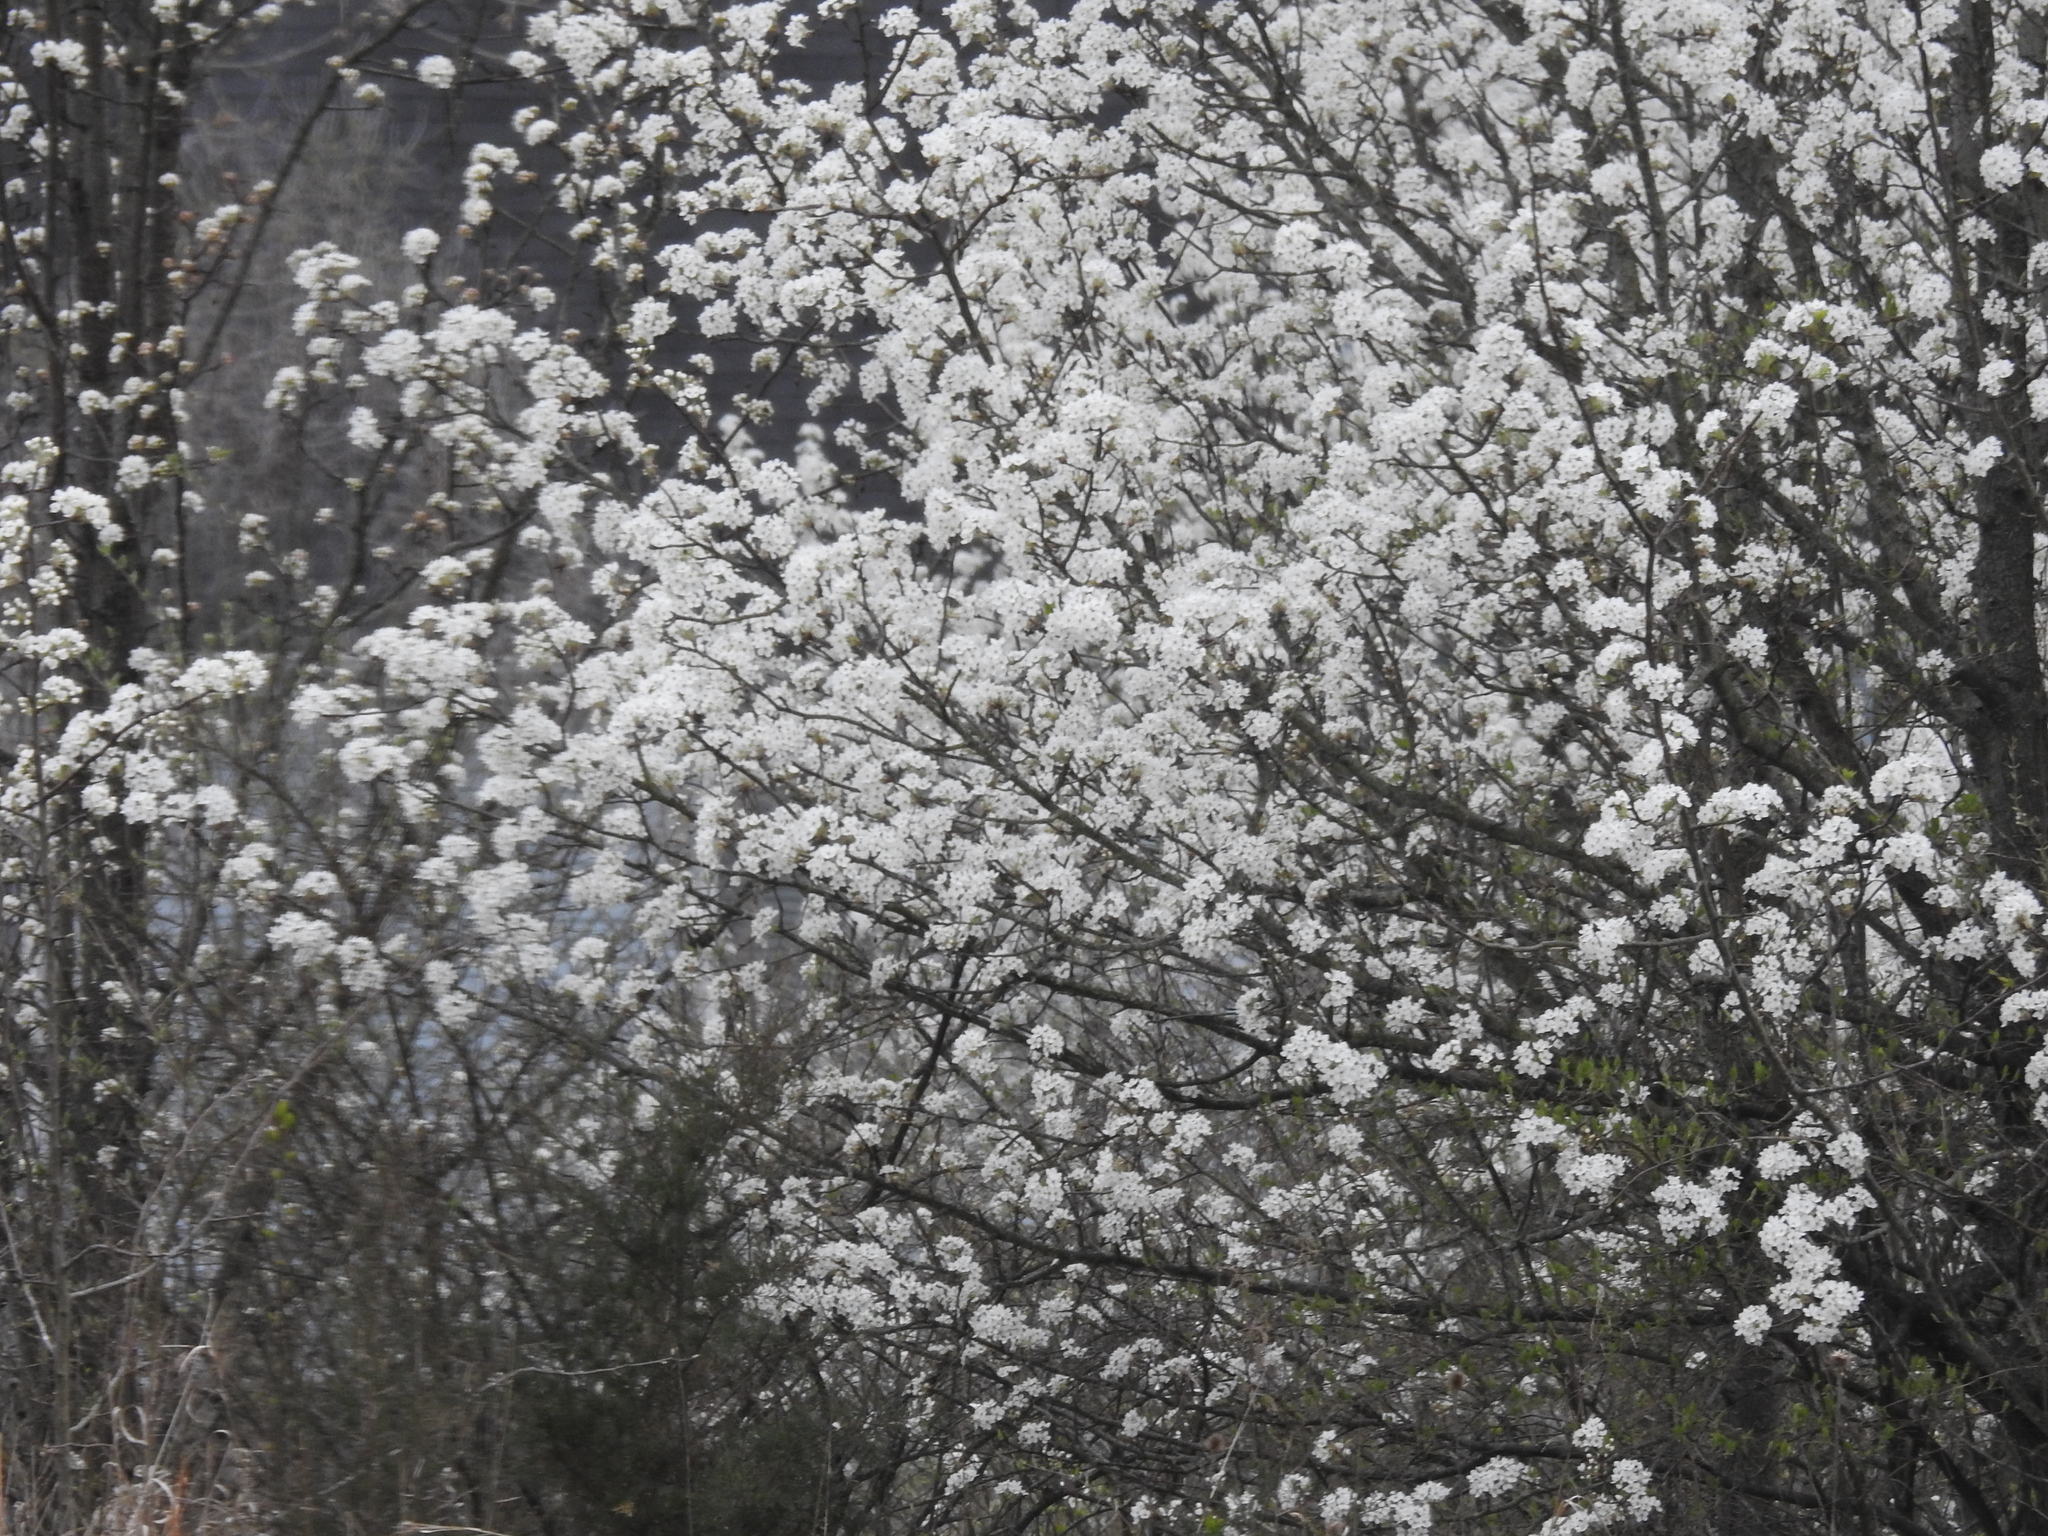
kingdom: Plantae
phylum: Tracheophyta
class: Magnoliopsida
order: Rosales
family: Rosaceae
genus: Pyrus
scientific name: Pyrus calleryana
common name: Callery pear
